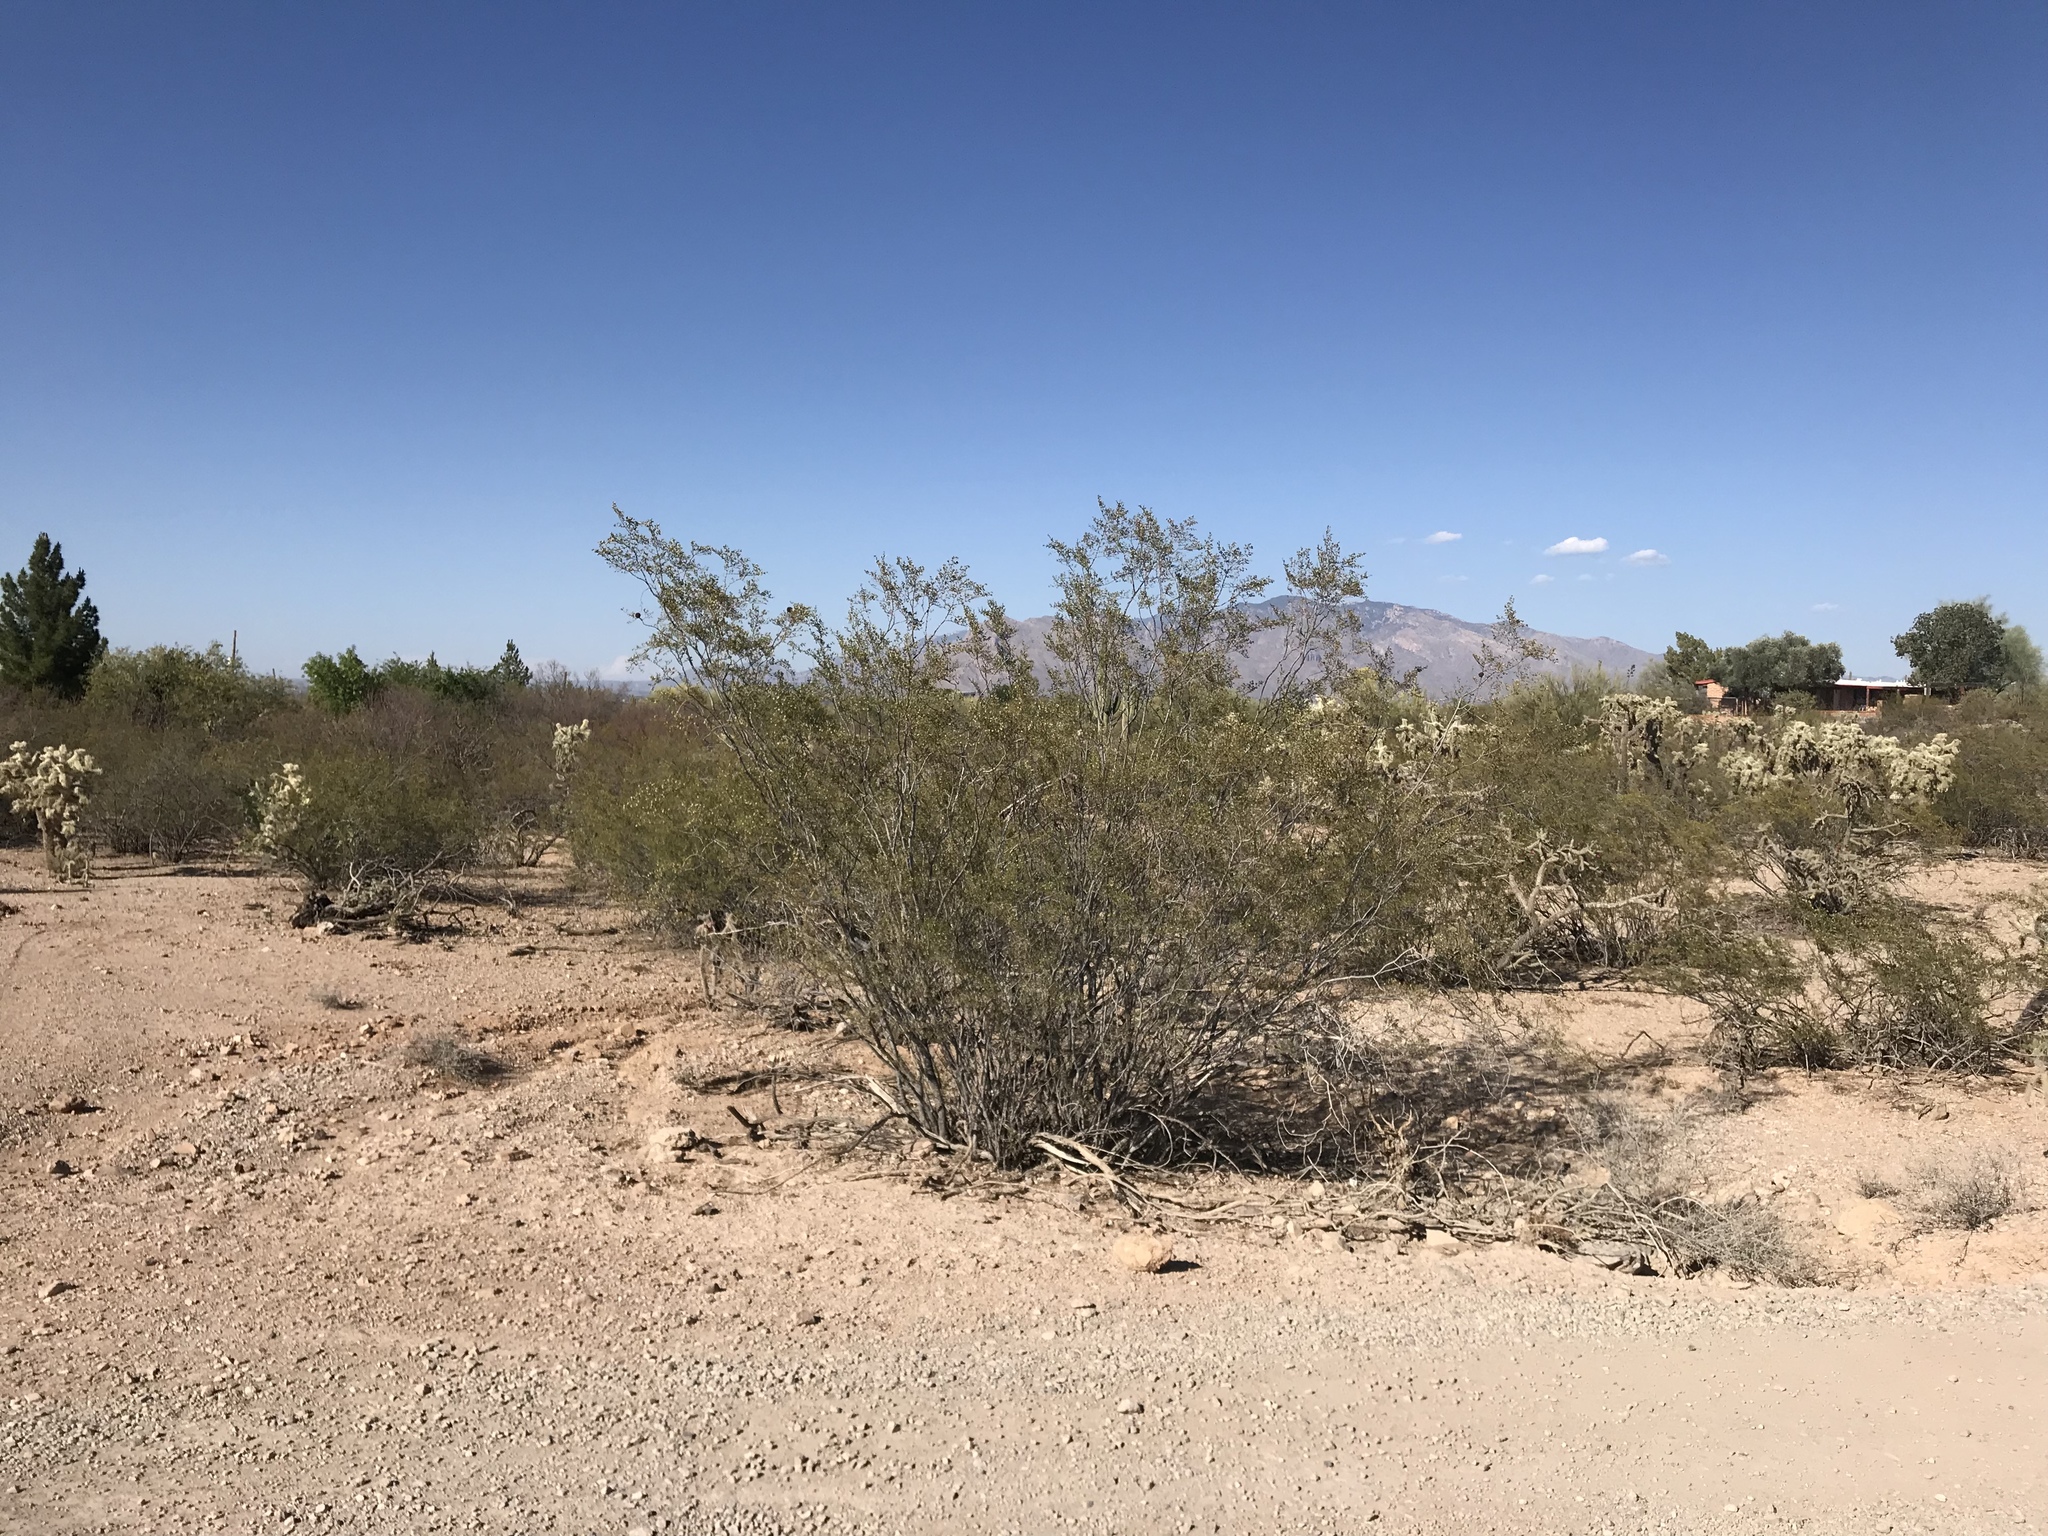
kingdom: Plantae
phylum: Tracheophyta
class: Magnoliopsida
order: Zygophyllales
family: Zygophyllaceae
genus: Larrea
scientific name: Larrea tridentata
